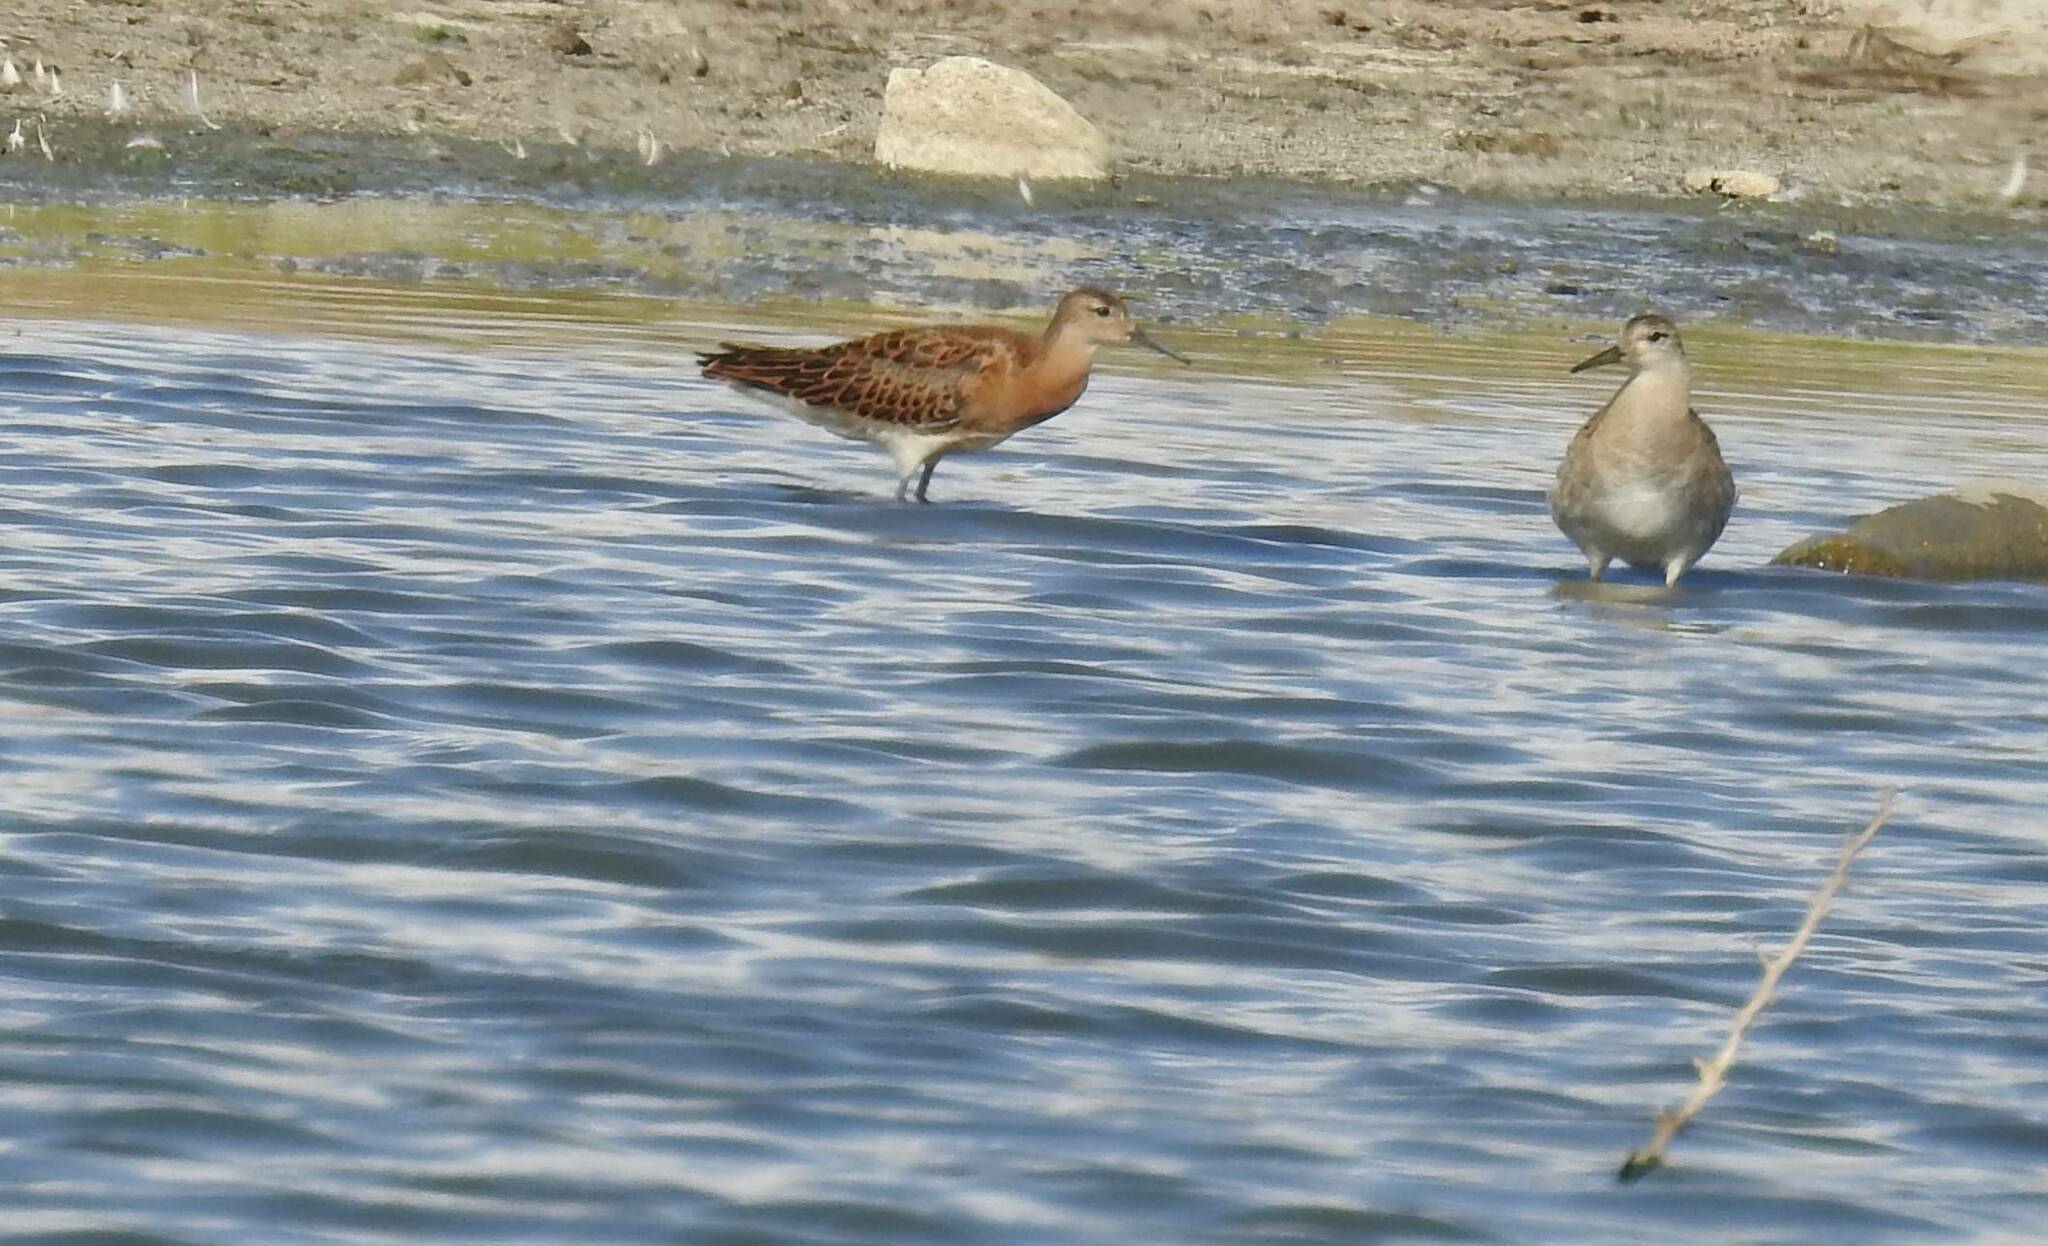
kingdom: Animalia
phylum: Chordata
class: Aves
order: Charadriiformes
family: Scolopacidae
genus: Calidris
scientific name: Calidris pugnax
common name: Ruff
